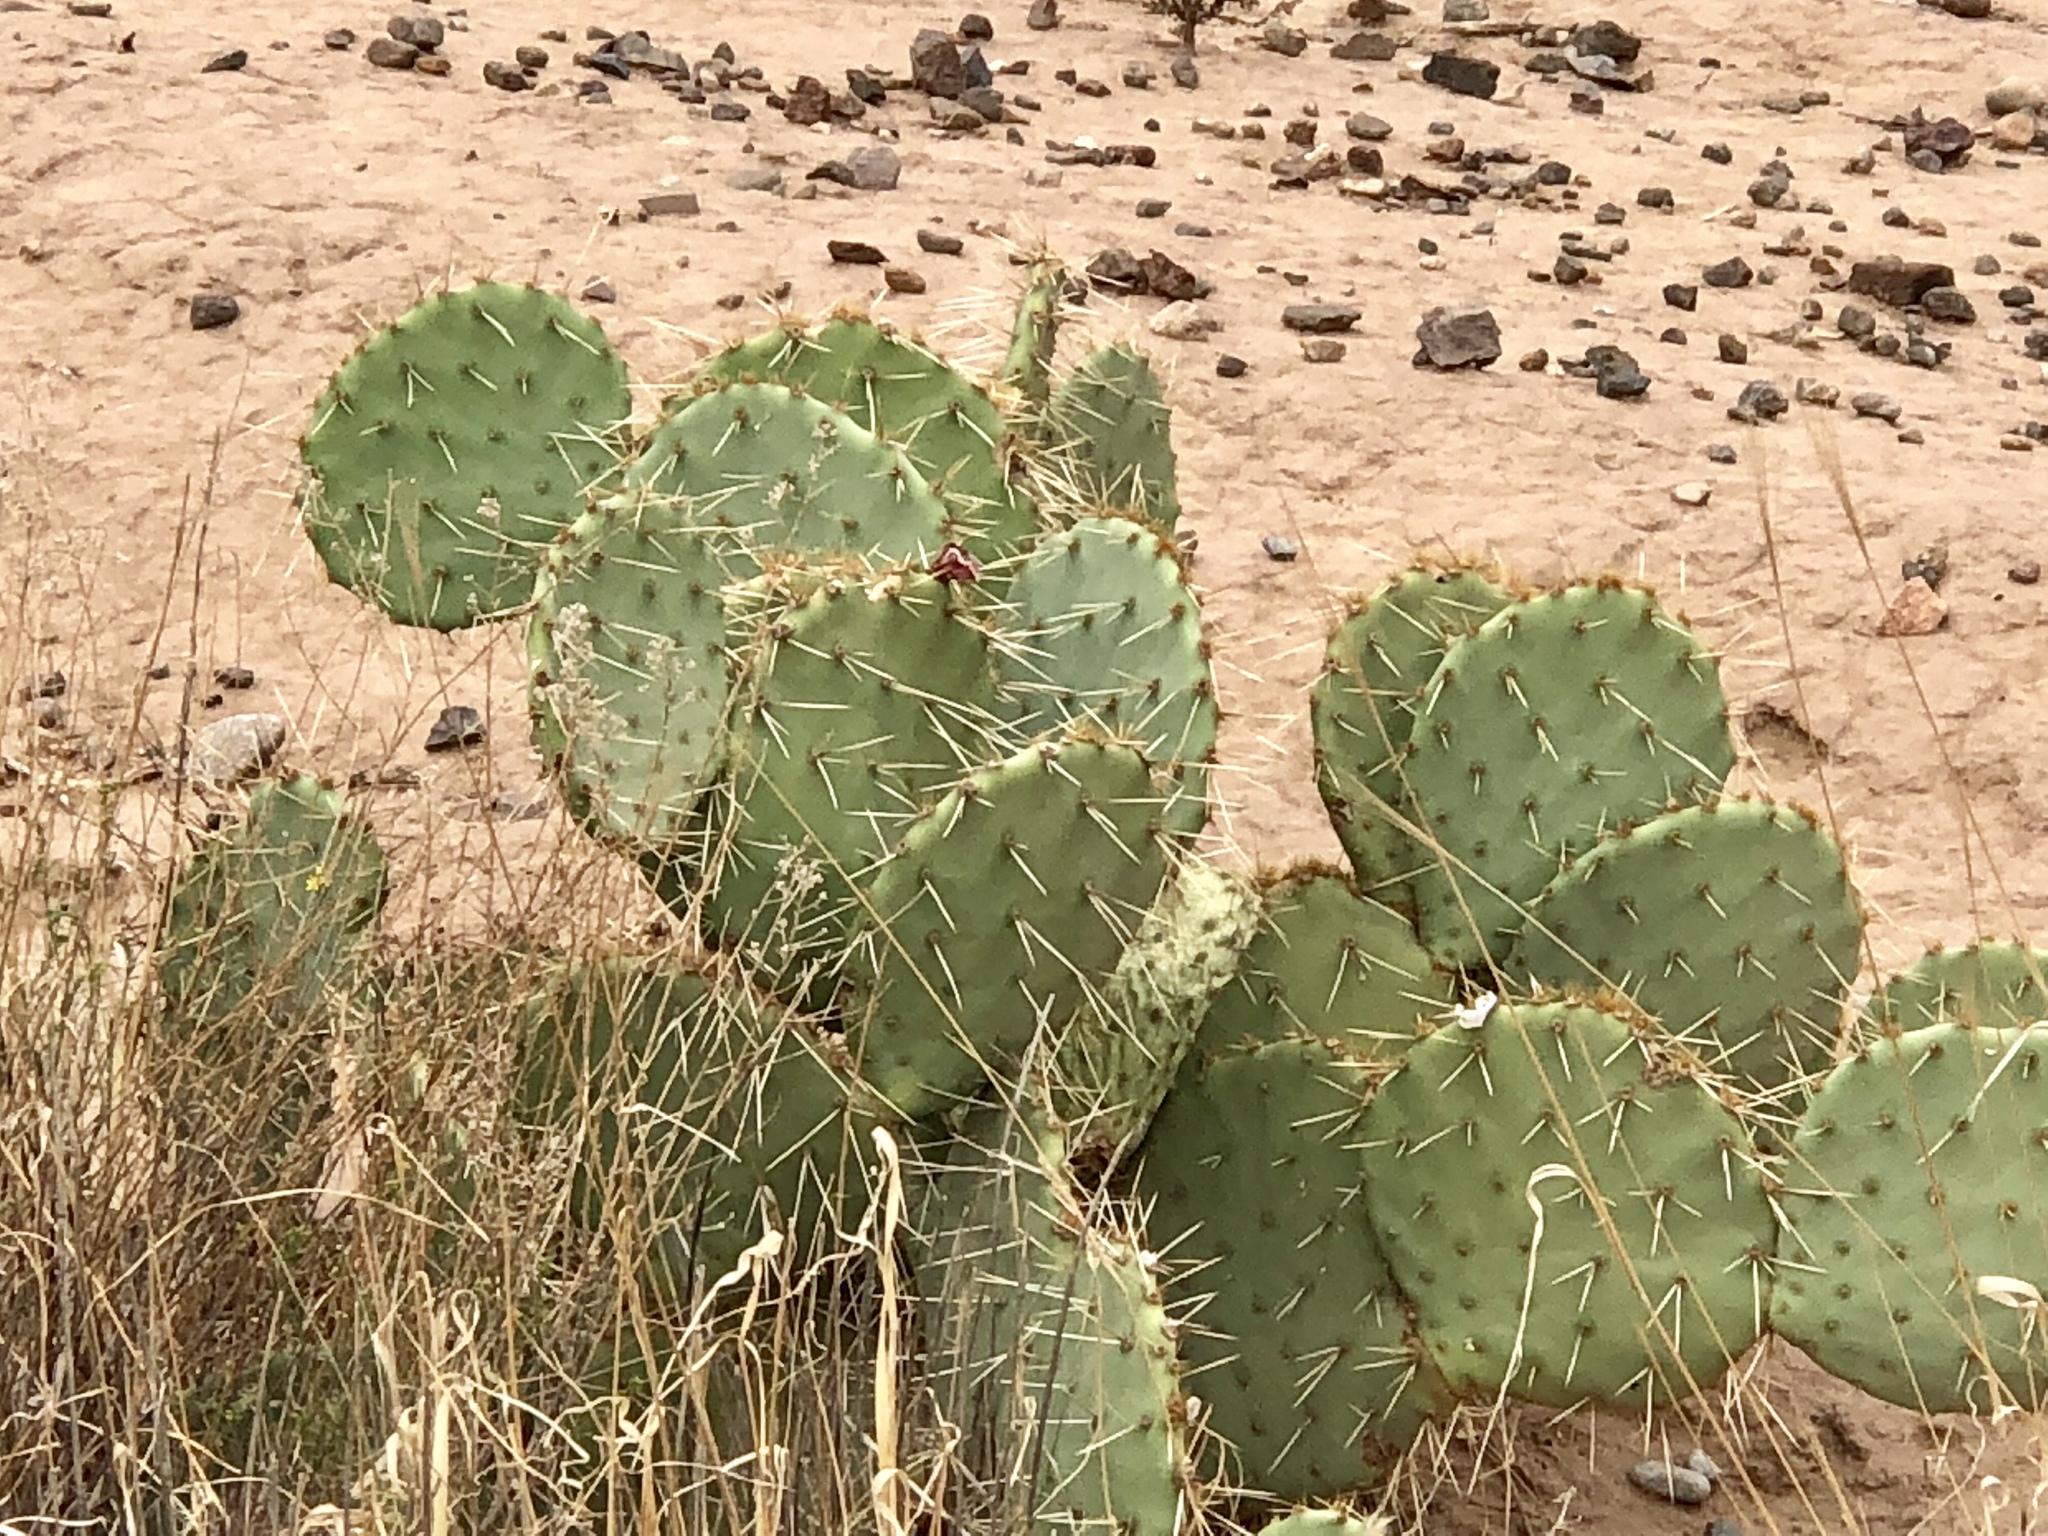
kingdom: Plantae
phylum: Tracheophyta
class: Magnoliopsida
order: Caryophyllales
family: Cactaceae
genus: Opuntia
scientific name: Opuntia phaeacantha
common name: New mexico prickly-pear
